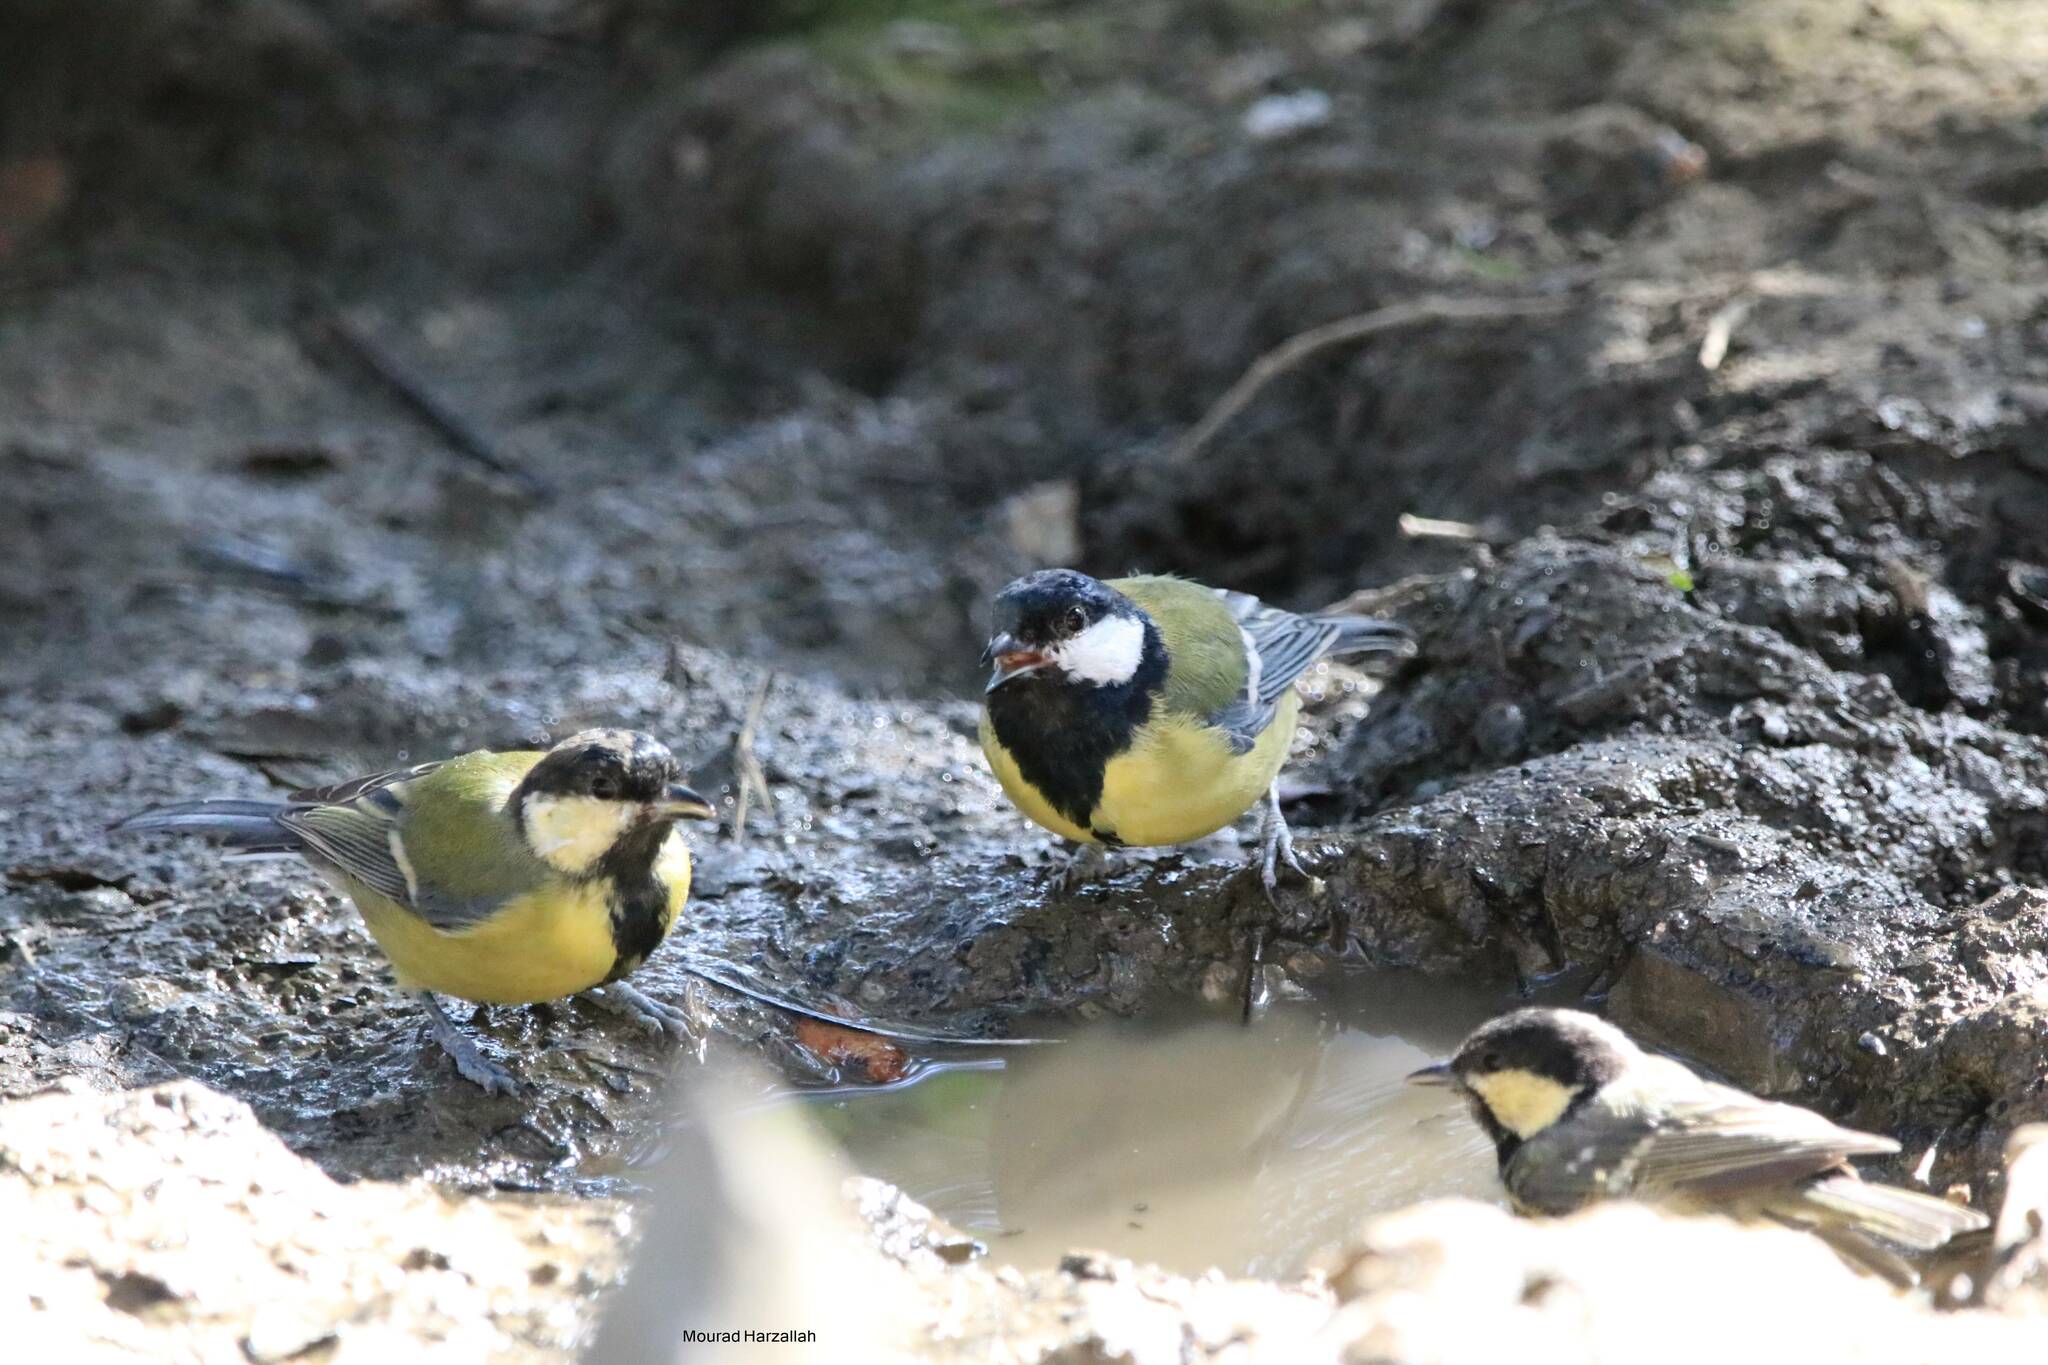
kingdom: Animalia
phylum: Chordata
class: Aves
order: Passeriformes
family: Paridae
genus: Parus
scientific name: Parus major
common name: Great tit
